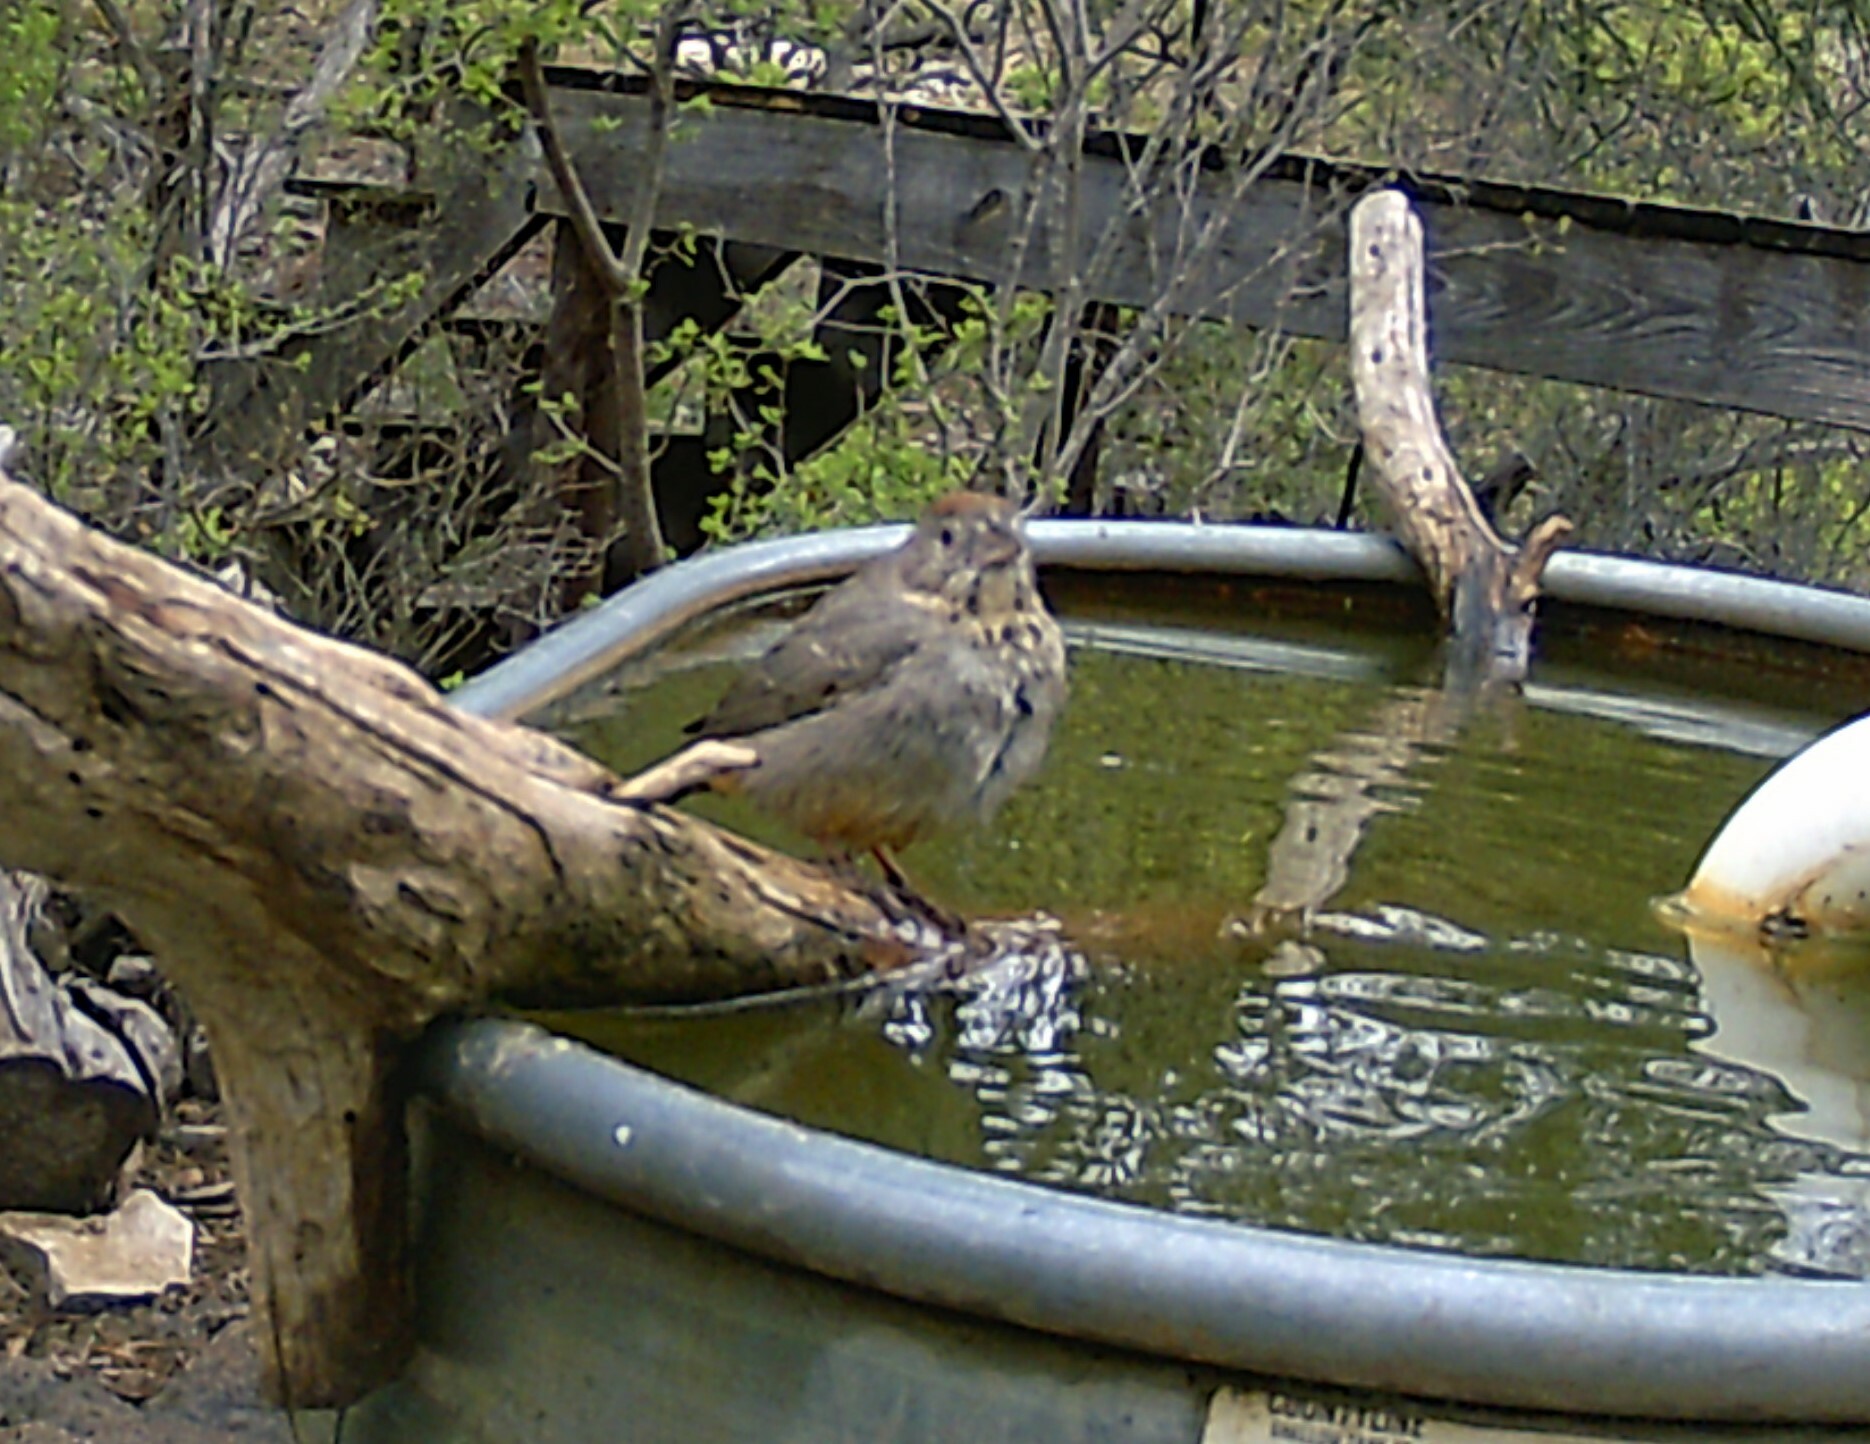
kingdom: Animalia
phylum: Chordata
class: Aves
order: Passeriformes
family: Passerellidae
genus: Melozone
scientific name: Melozone fusca
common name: Canyon towhee
